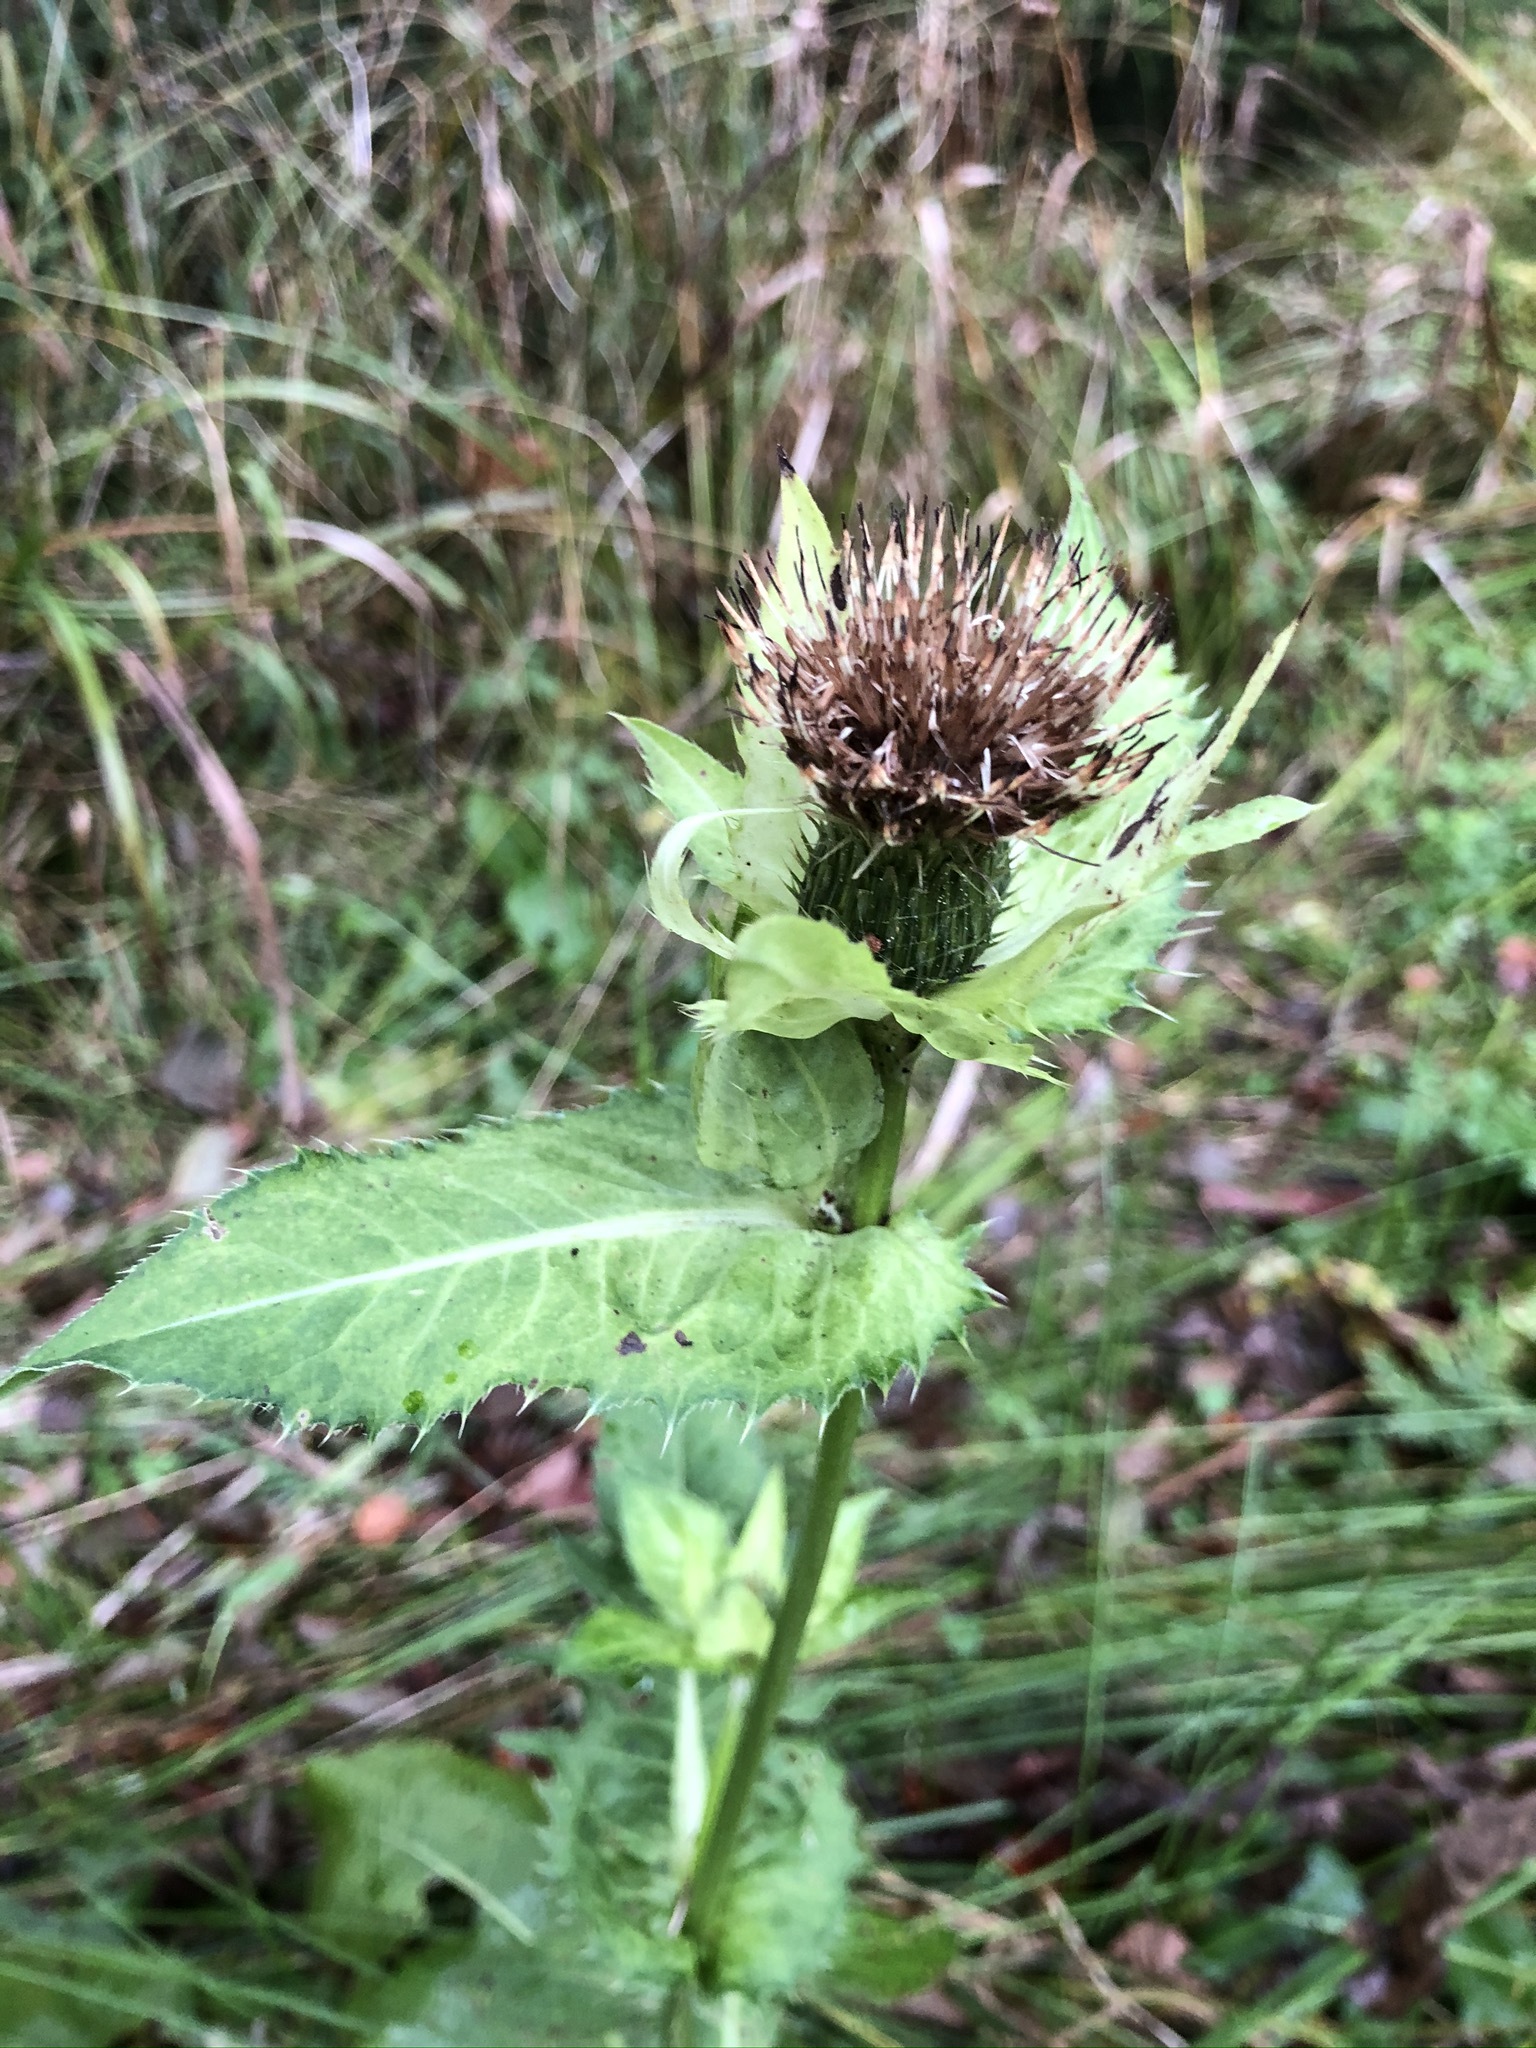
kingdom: Plantae
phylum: Tracheophyta
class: Magnoliopsida
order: Asterales
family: Asteraceae
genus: Cirsium
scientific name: Cirsium oleraceum
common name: Cabbage thistle
